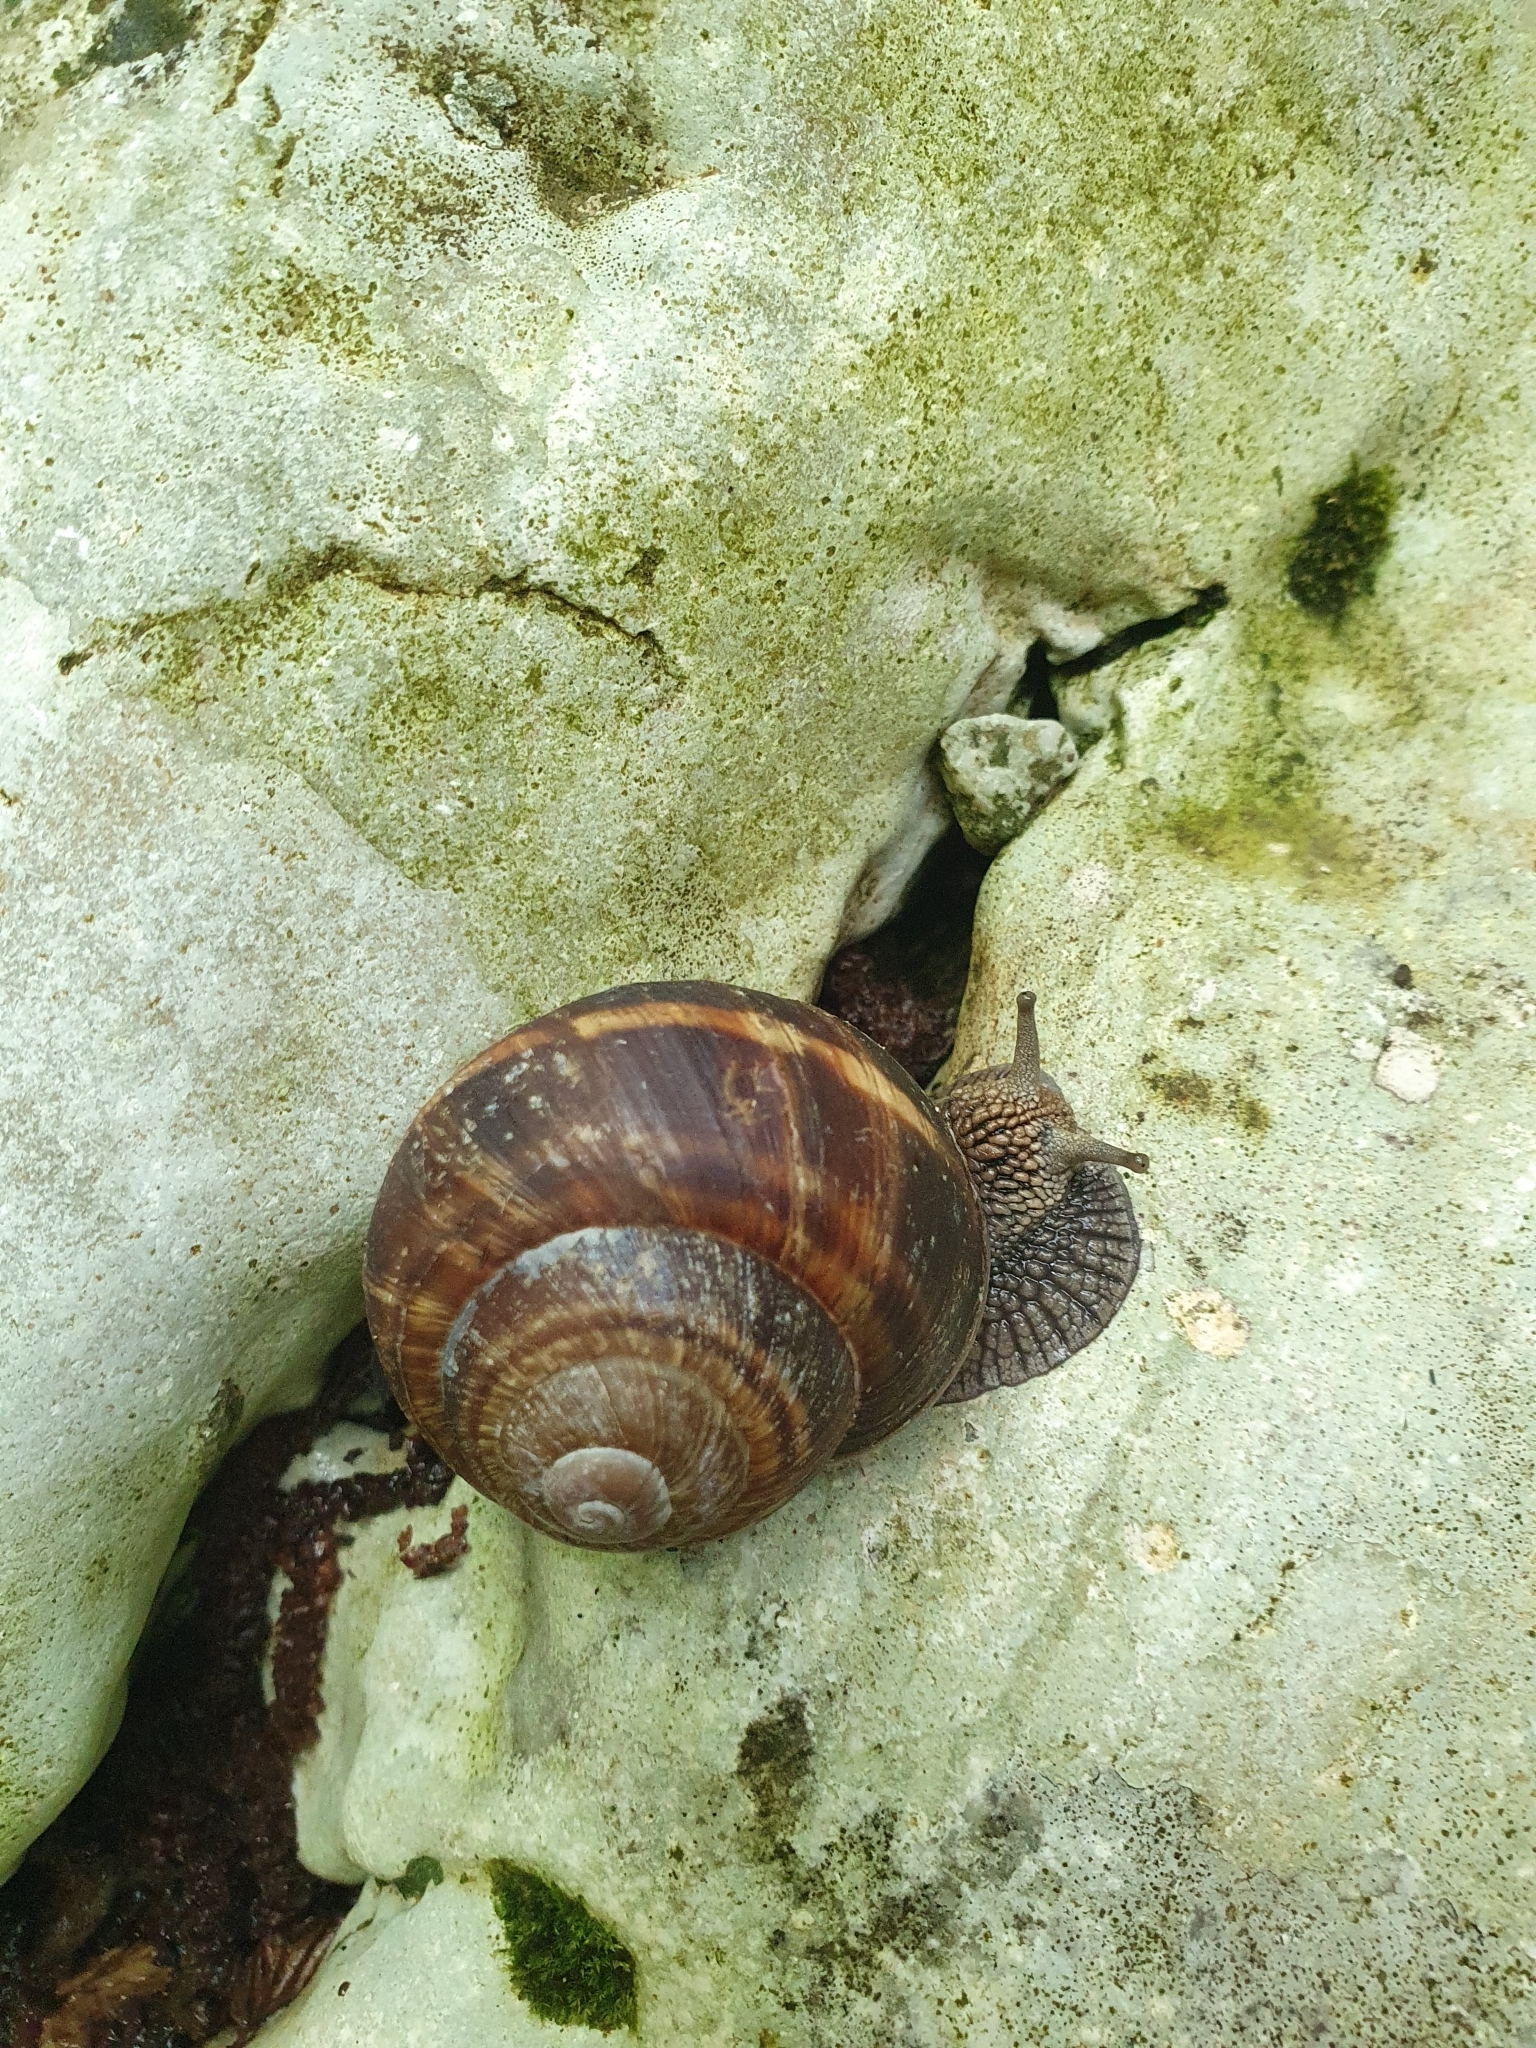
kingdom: Animalia
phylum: Mollusca
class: Gastropoda
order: Stylommatophora
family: Helicidae
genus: Helix
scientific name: Helix straminea
